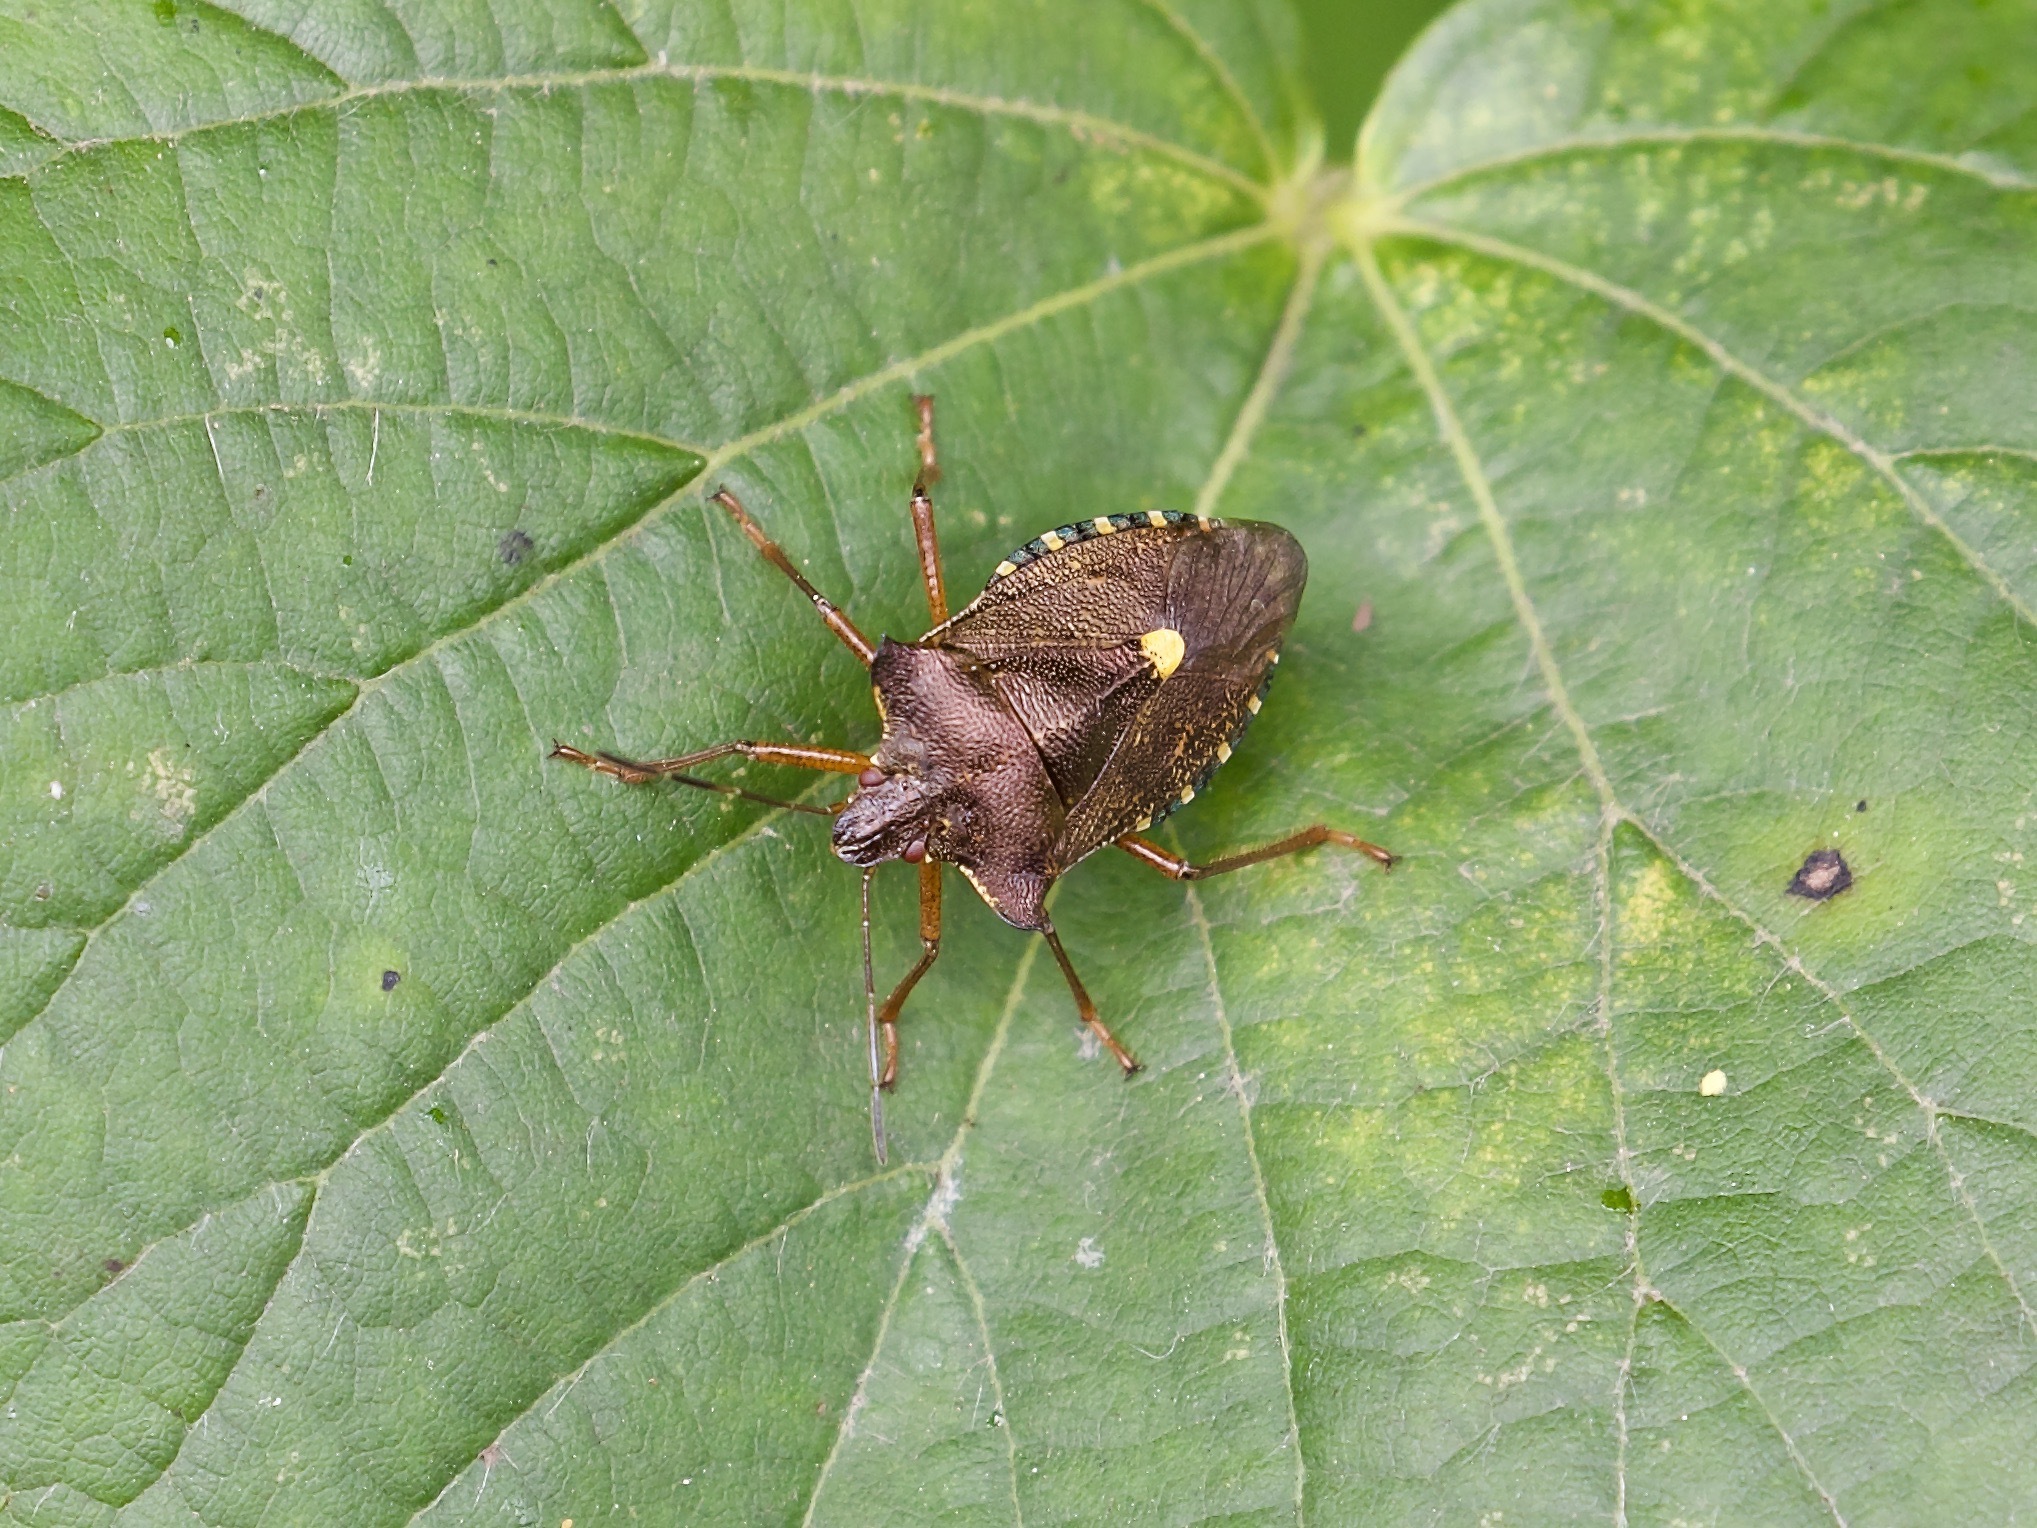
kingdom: Animalia
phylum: Arthropoda
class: Insecta
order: Hemiptera
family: Pentatomidae
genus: Pentatoma
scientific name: Pentatoma rufipes
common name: Forest bug
